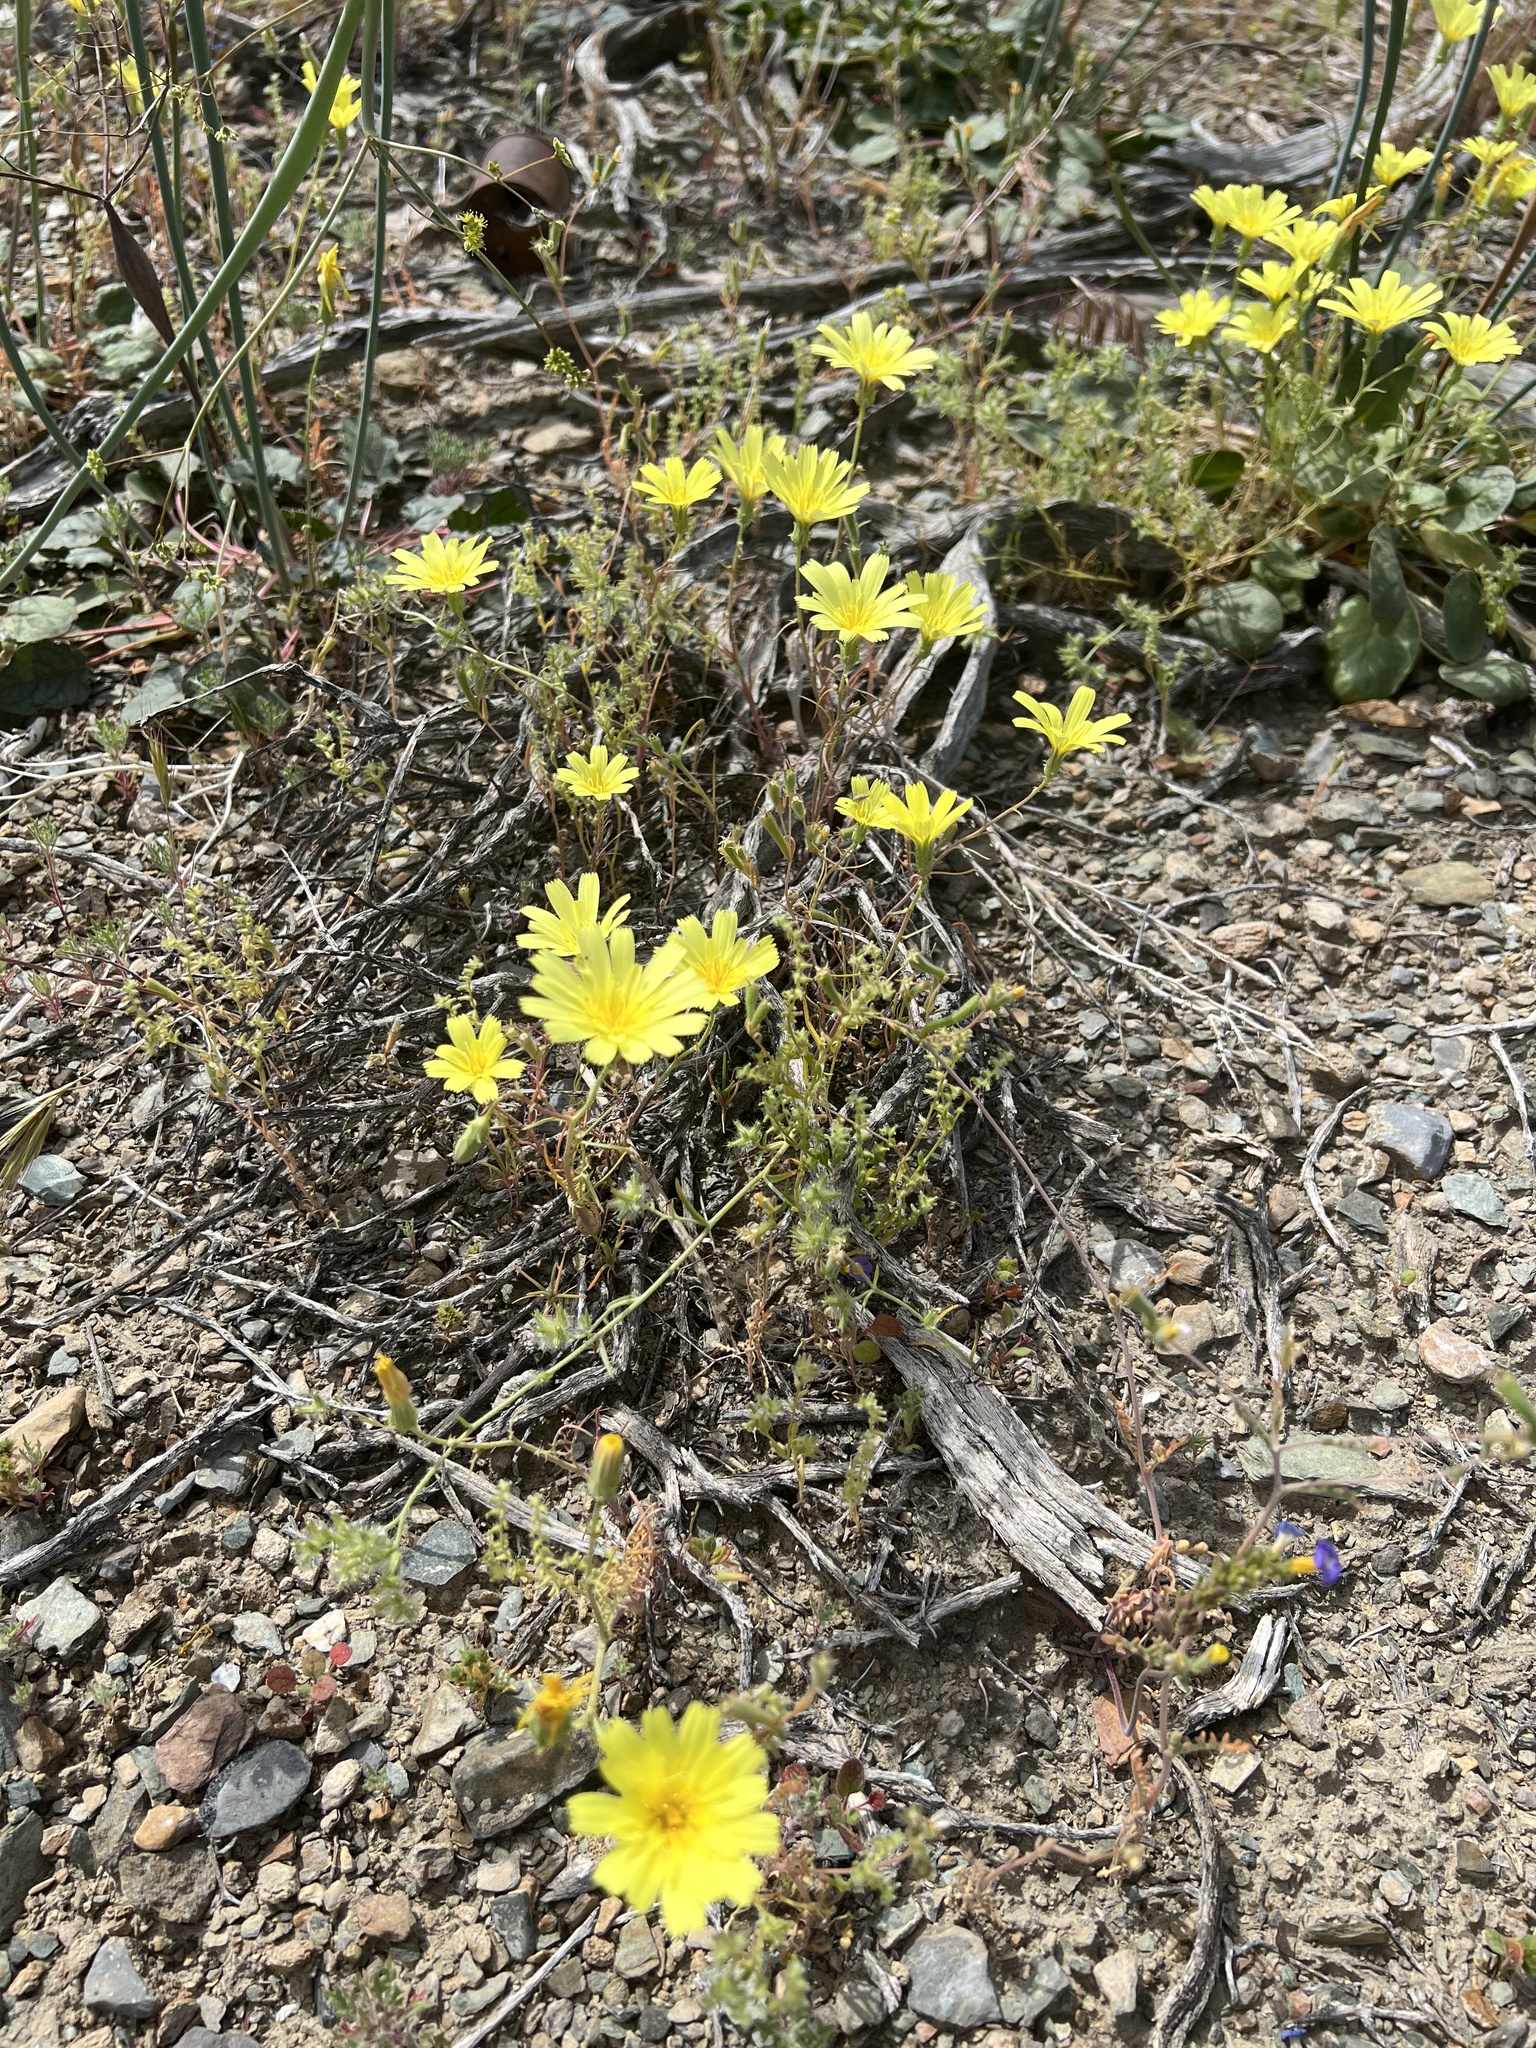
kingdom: Plantae
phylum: Tracheophyta
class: Magnoliopsida
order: Asterales
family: Asteraceae
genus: Calycoseris
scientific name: Calycoseris parryi
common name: Yellow tackstem
